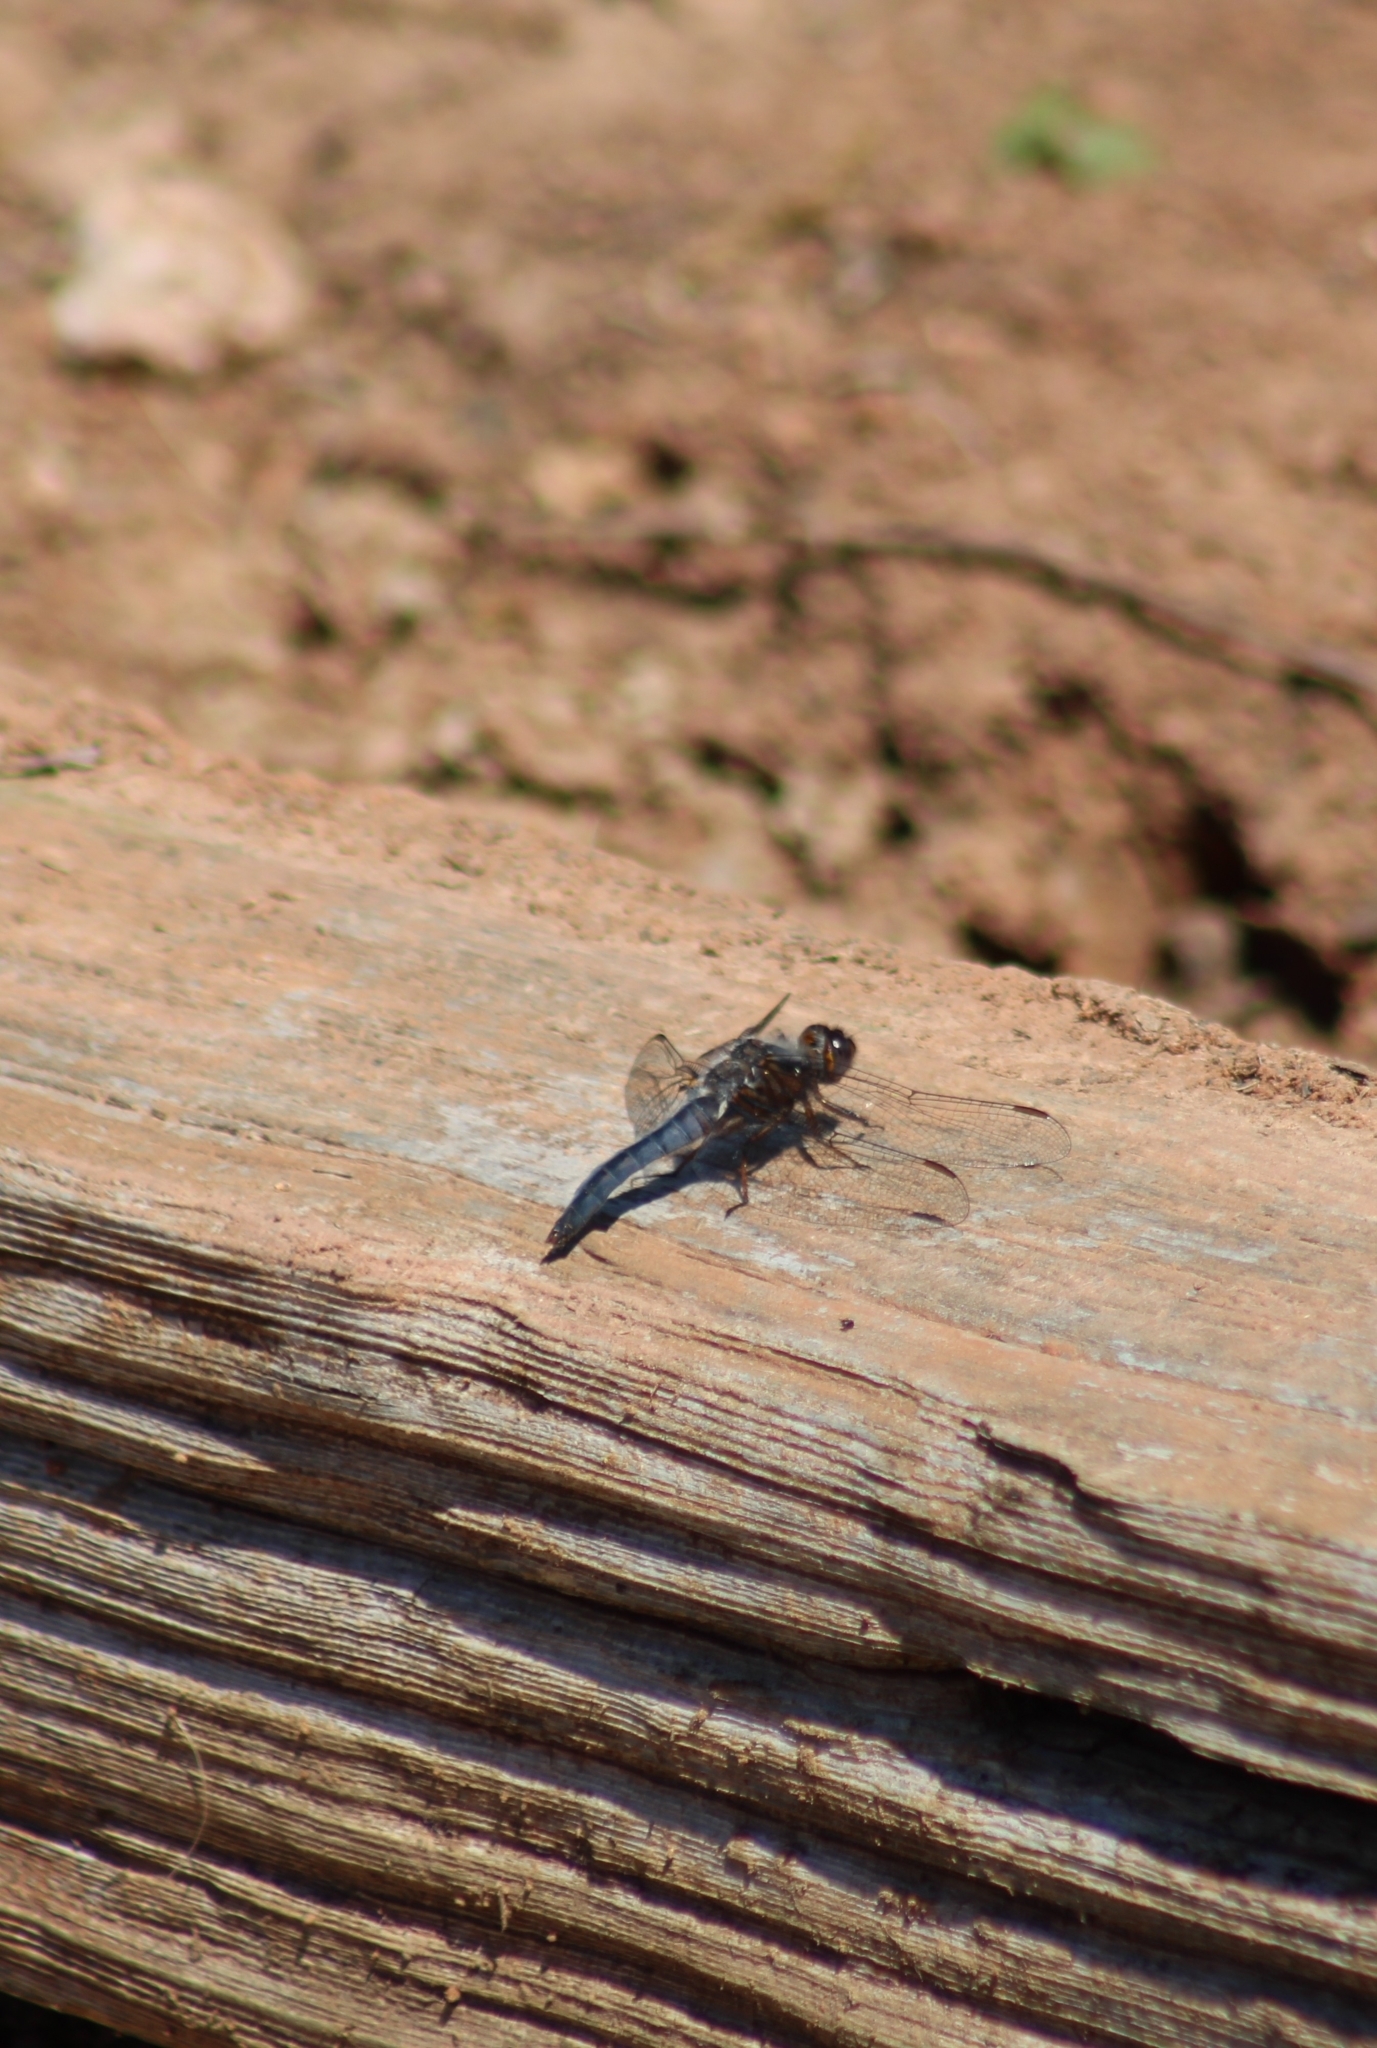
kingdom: Animalia
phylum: Arthropoda
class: Insecta
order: Odonata
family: Libellulidae
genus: Ladona
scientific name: Ladona deplanata
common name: Blue corporal
